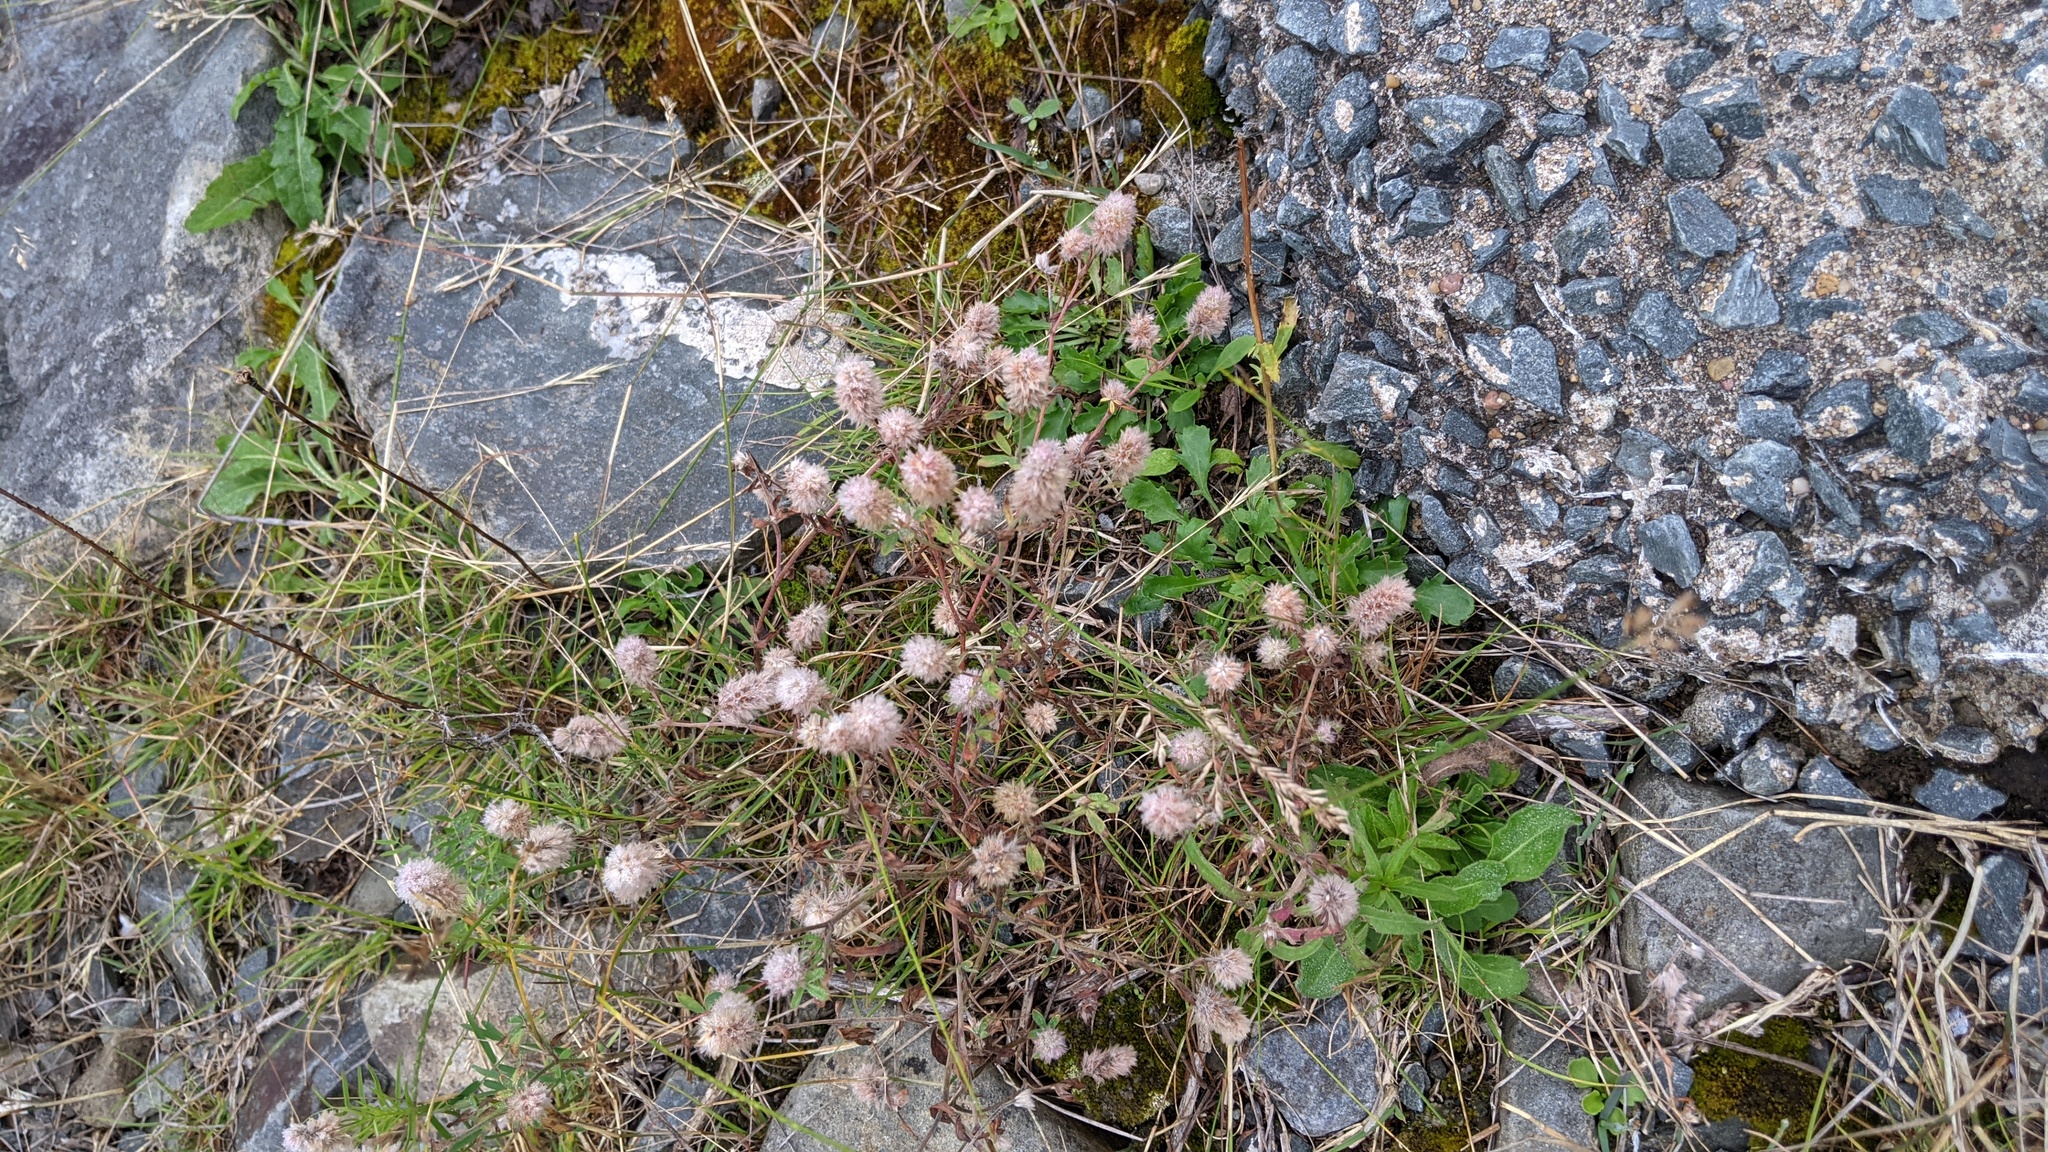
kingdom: Plantae
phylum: Tracheophyta
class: Magnoliopsida
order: Fabales
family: Fabaceae
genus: Trifolium
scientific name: Trifolium arvense
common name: Hare's-foot clover
